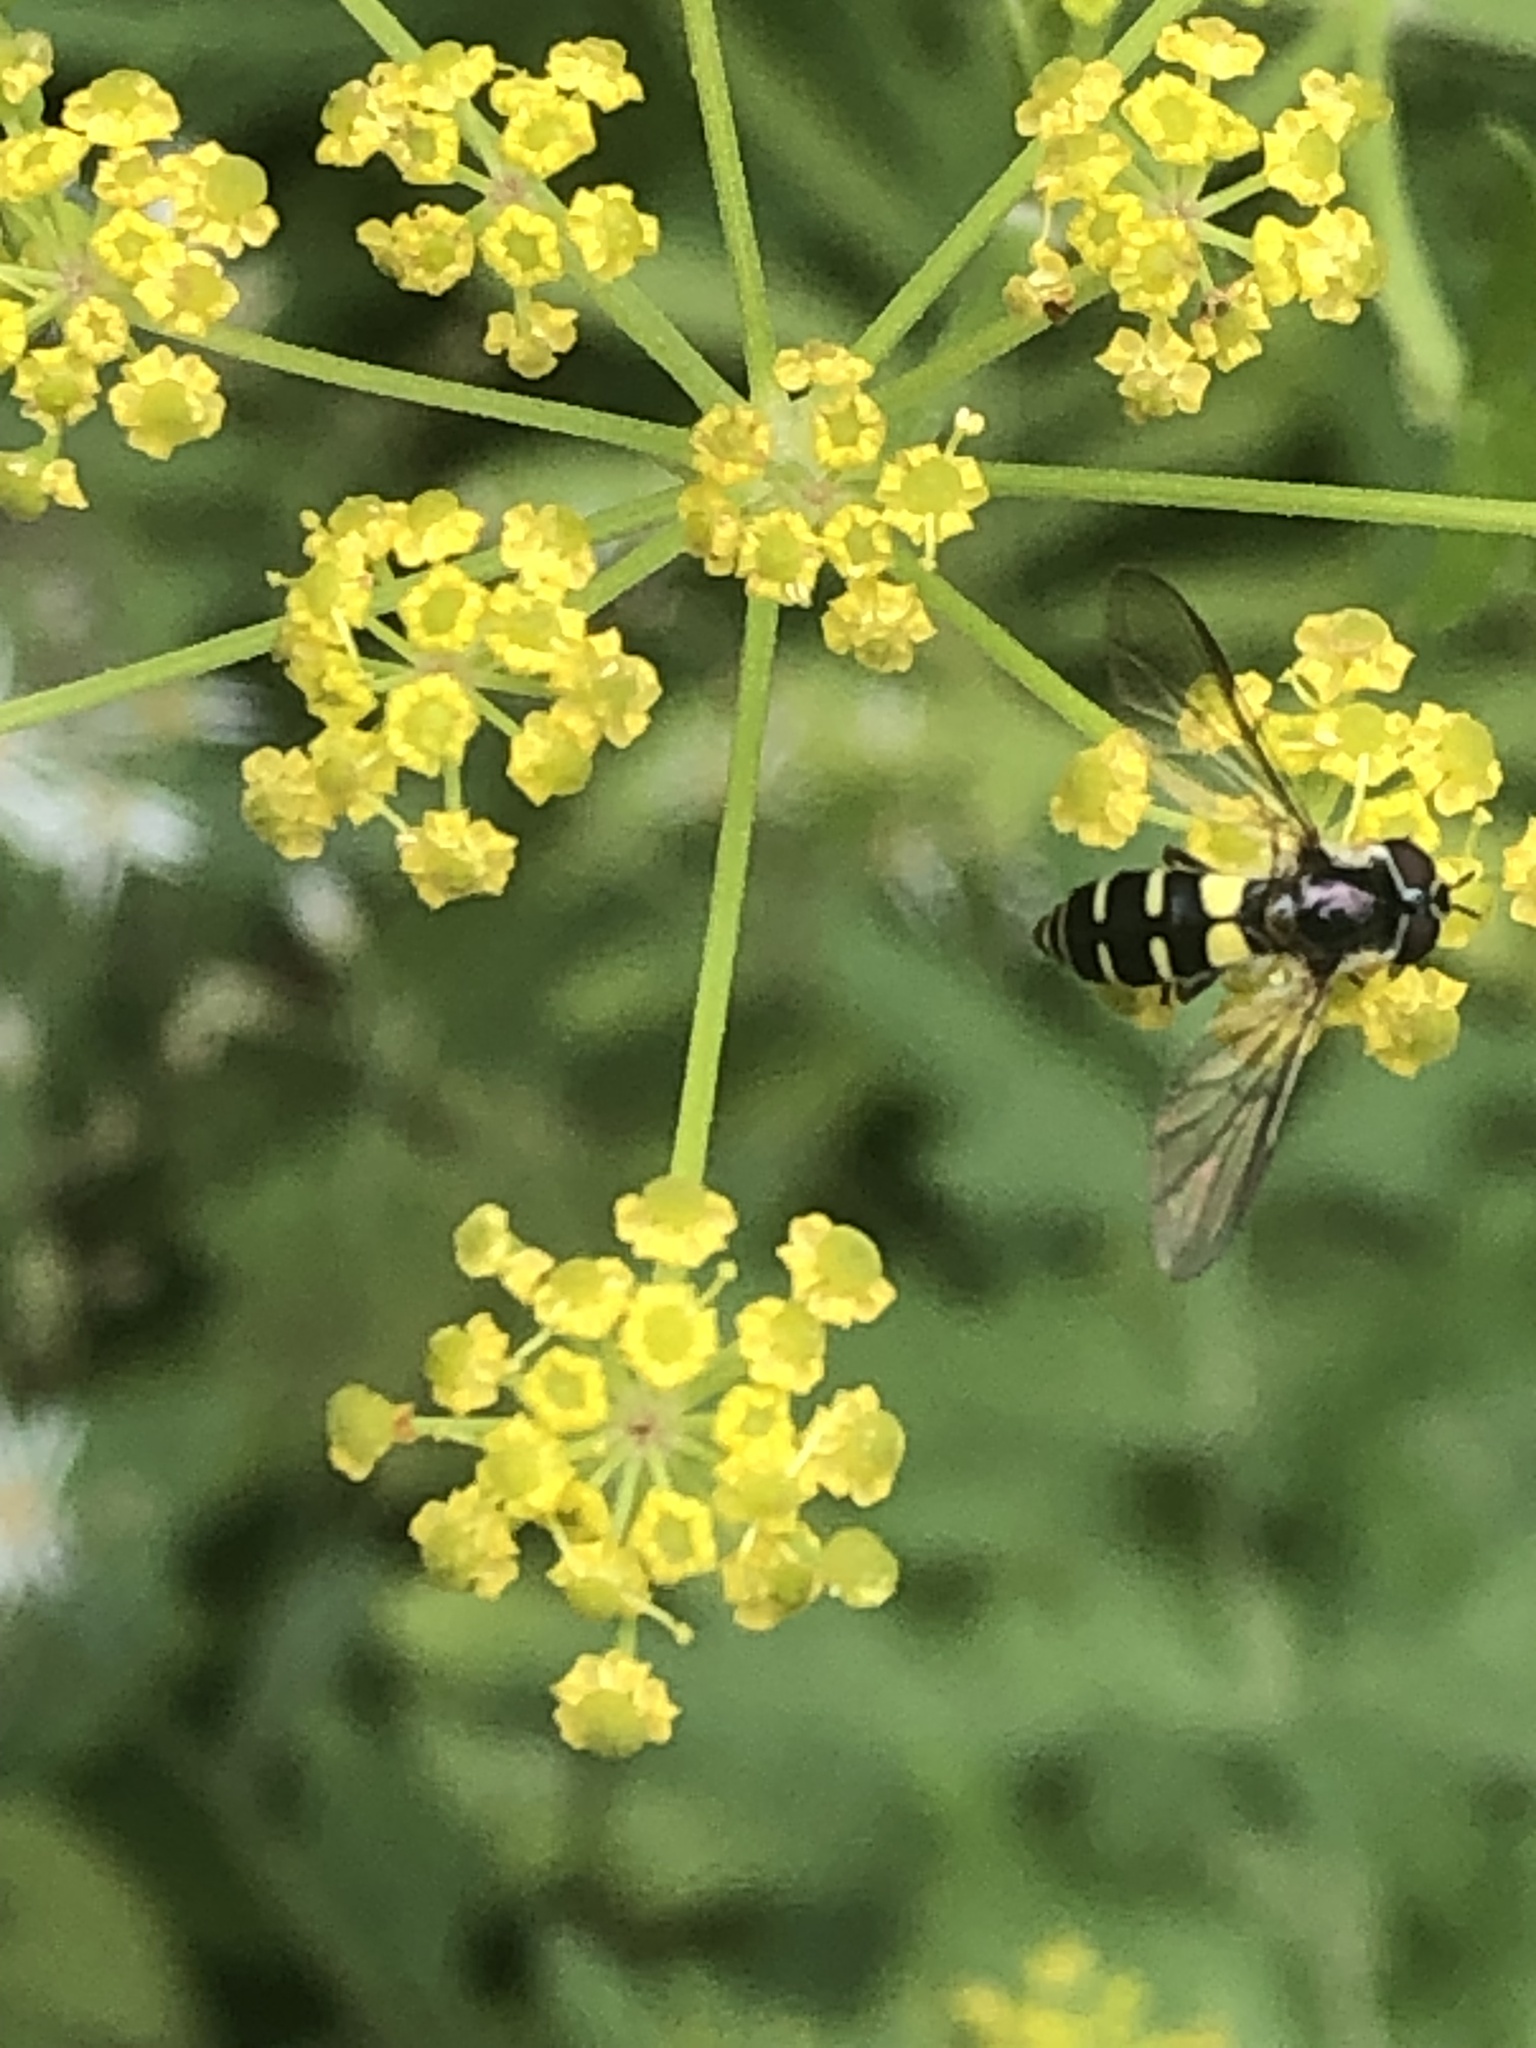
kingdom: Animalia
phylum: Arthropoda
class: Insecta
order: Diptera
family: Syrphidae
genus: Melangyna
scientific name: Melangyna fisherii
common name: Large-spotted halfband
